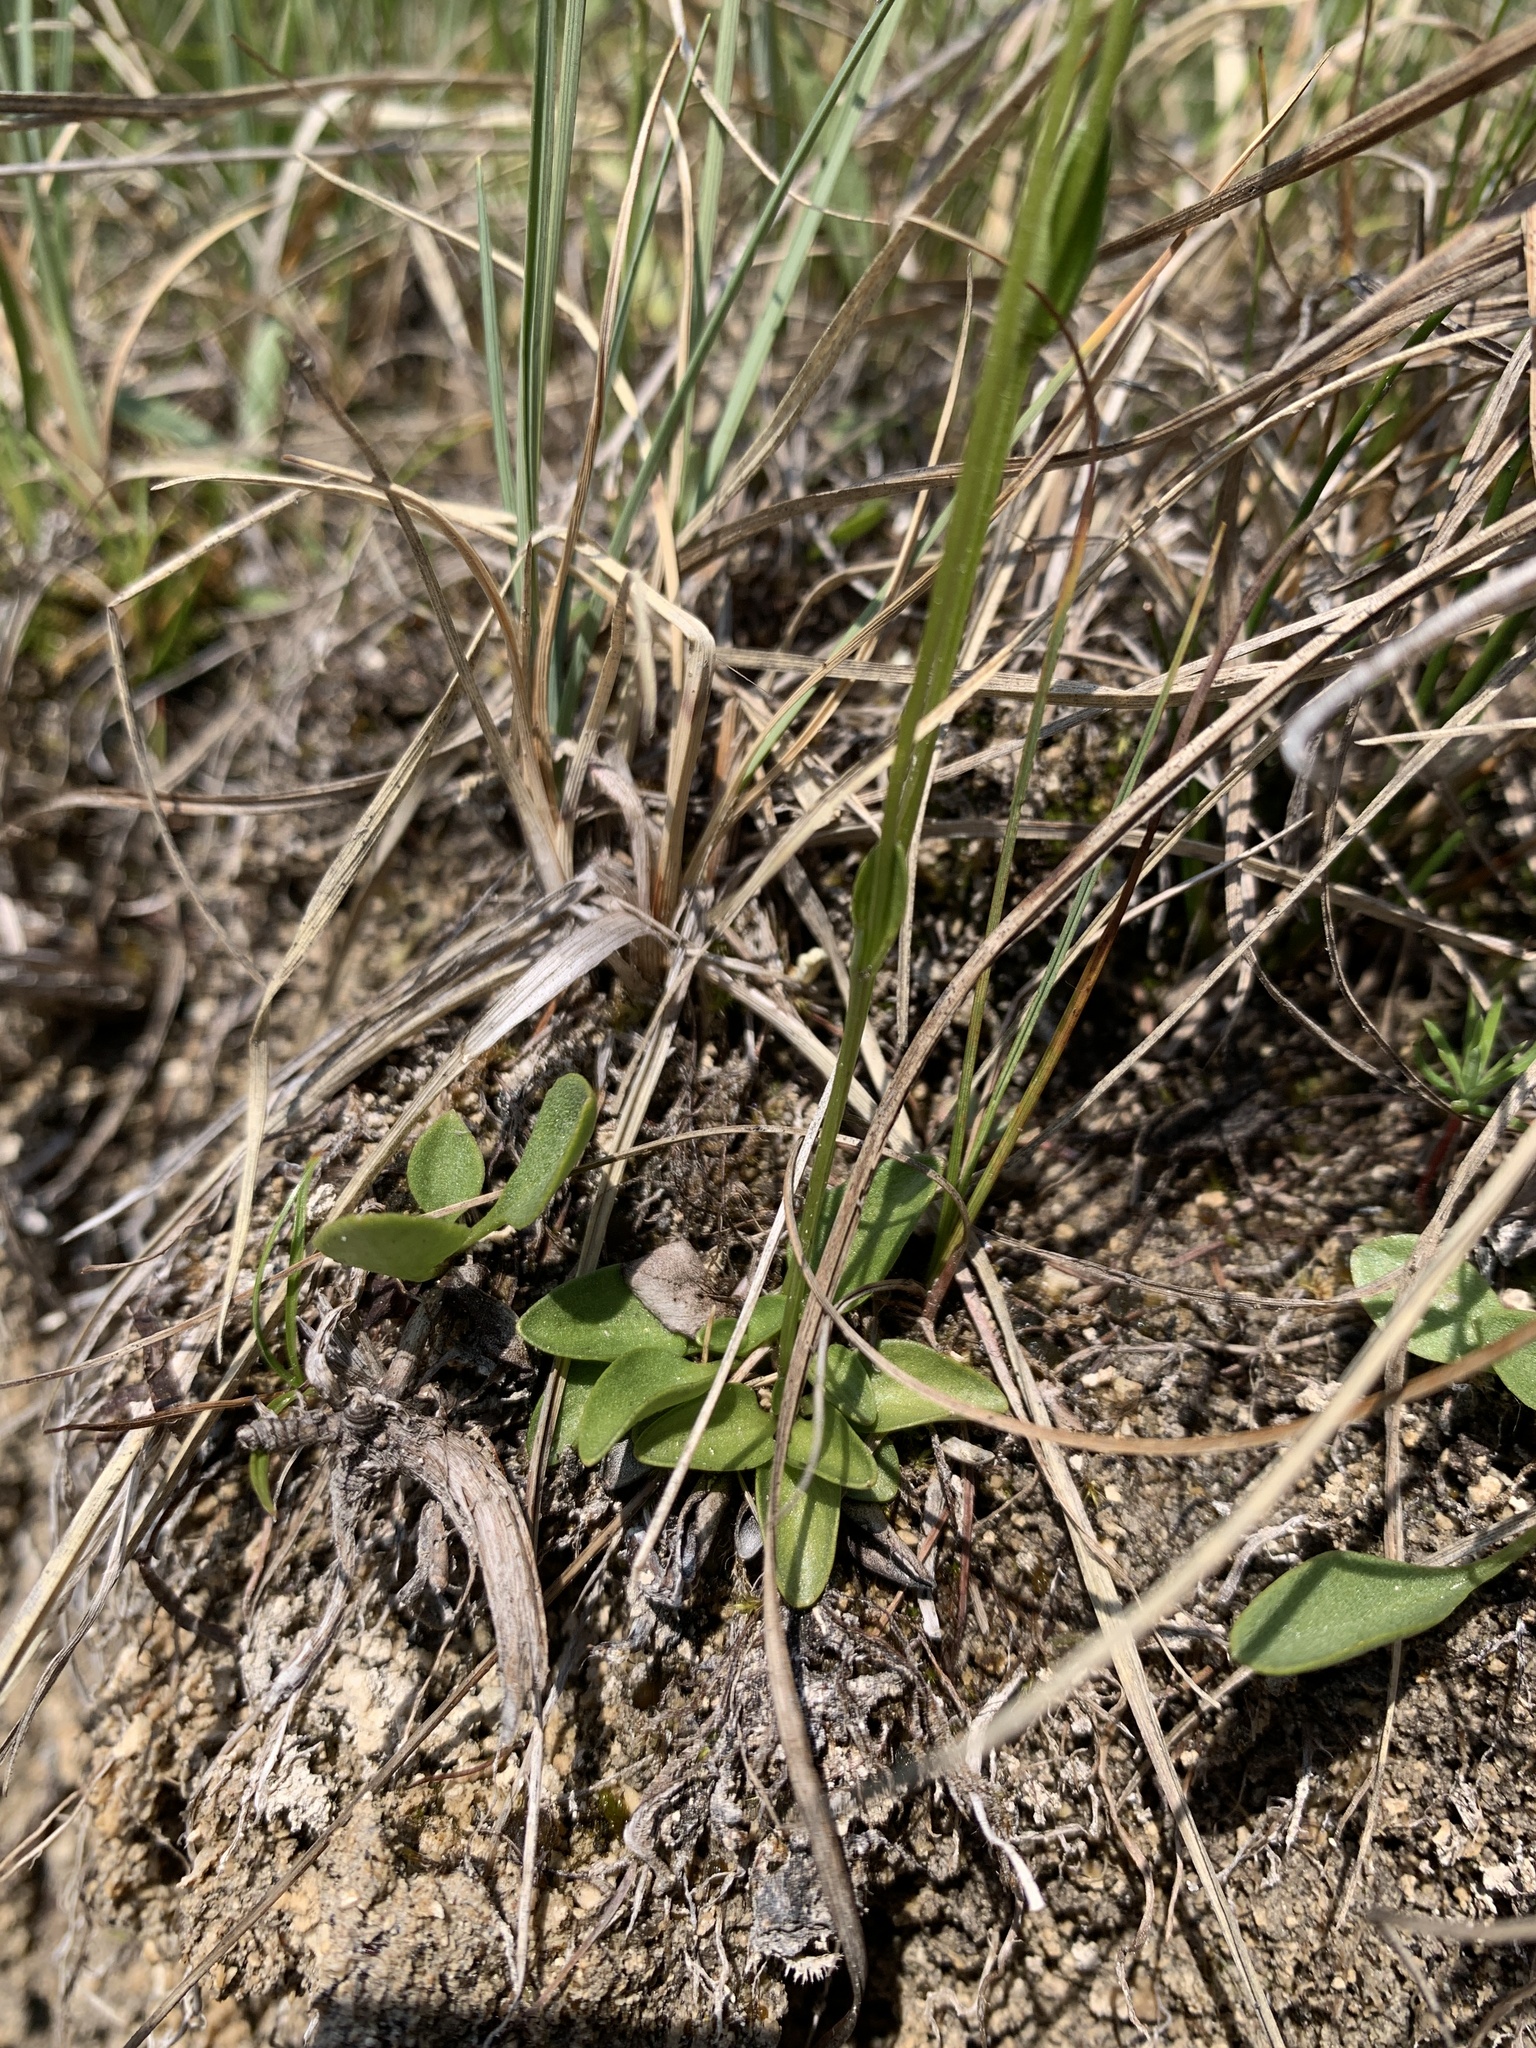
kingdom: Plantae
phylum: Tracheophyta
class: Magnoliopsida
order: Celastrales
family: Parnassiaceae
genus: Parnassia
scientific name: Parnassia palustris
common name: Grass-of-parnassus
